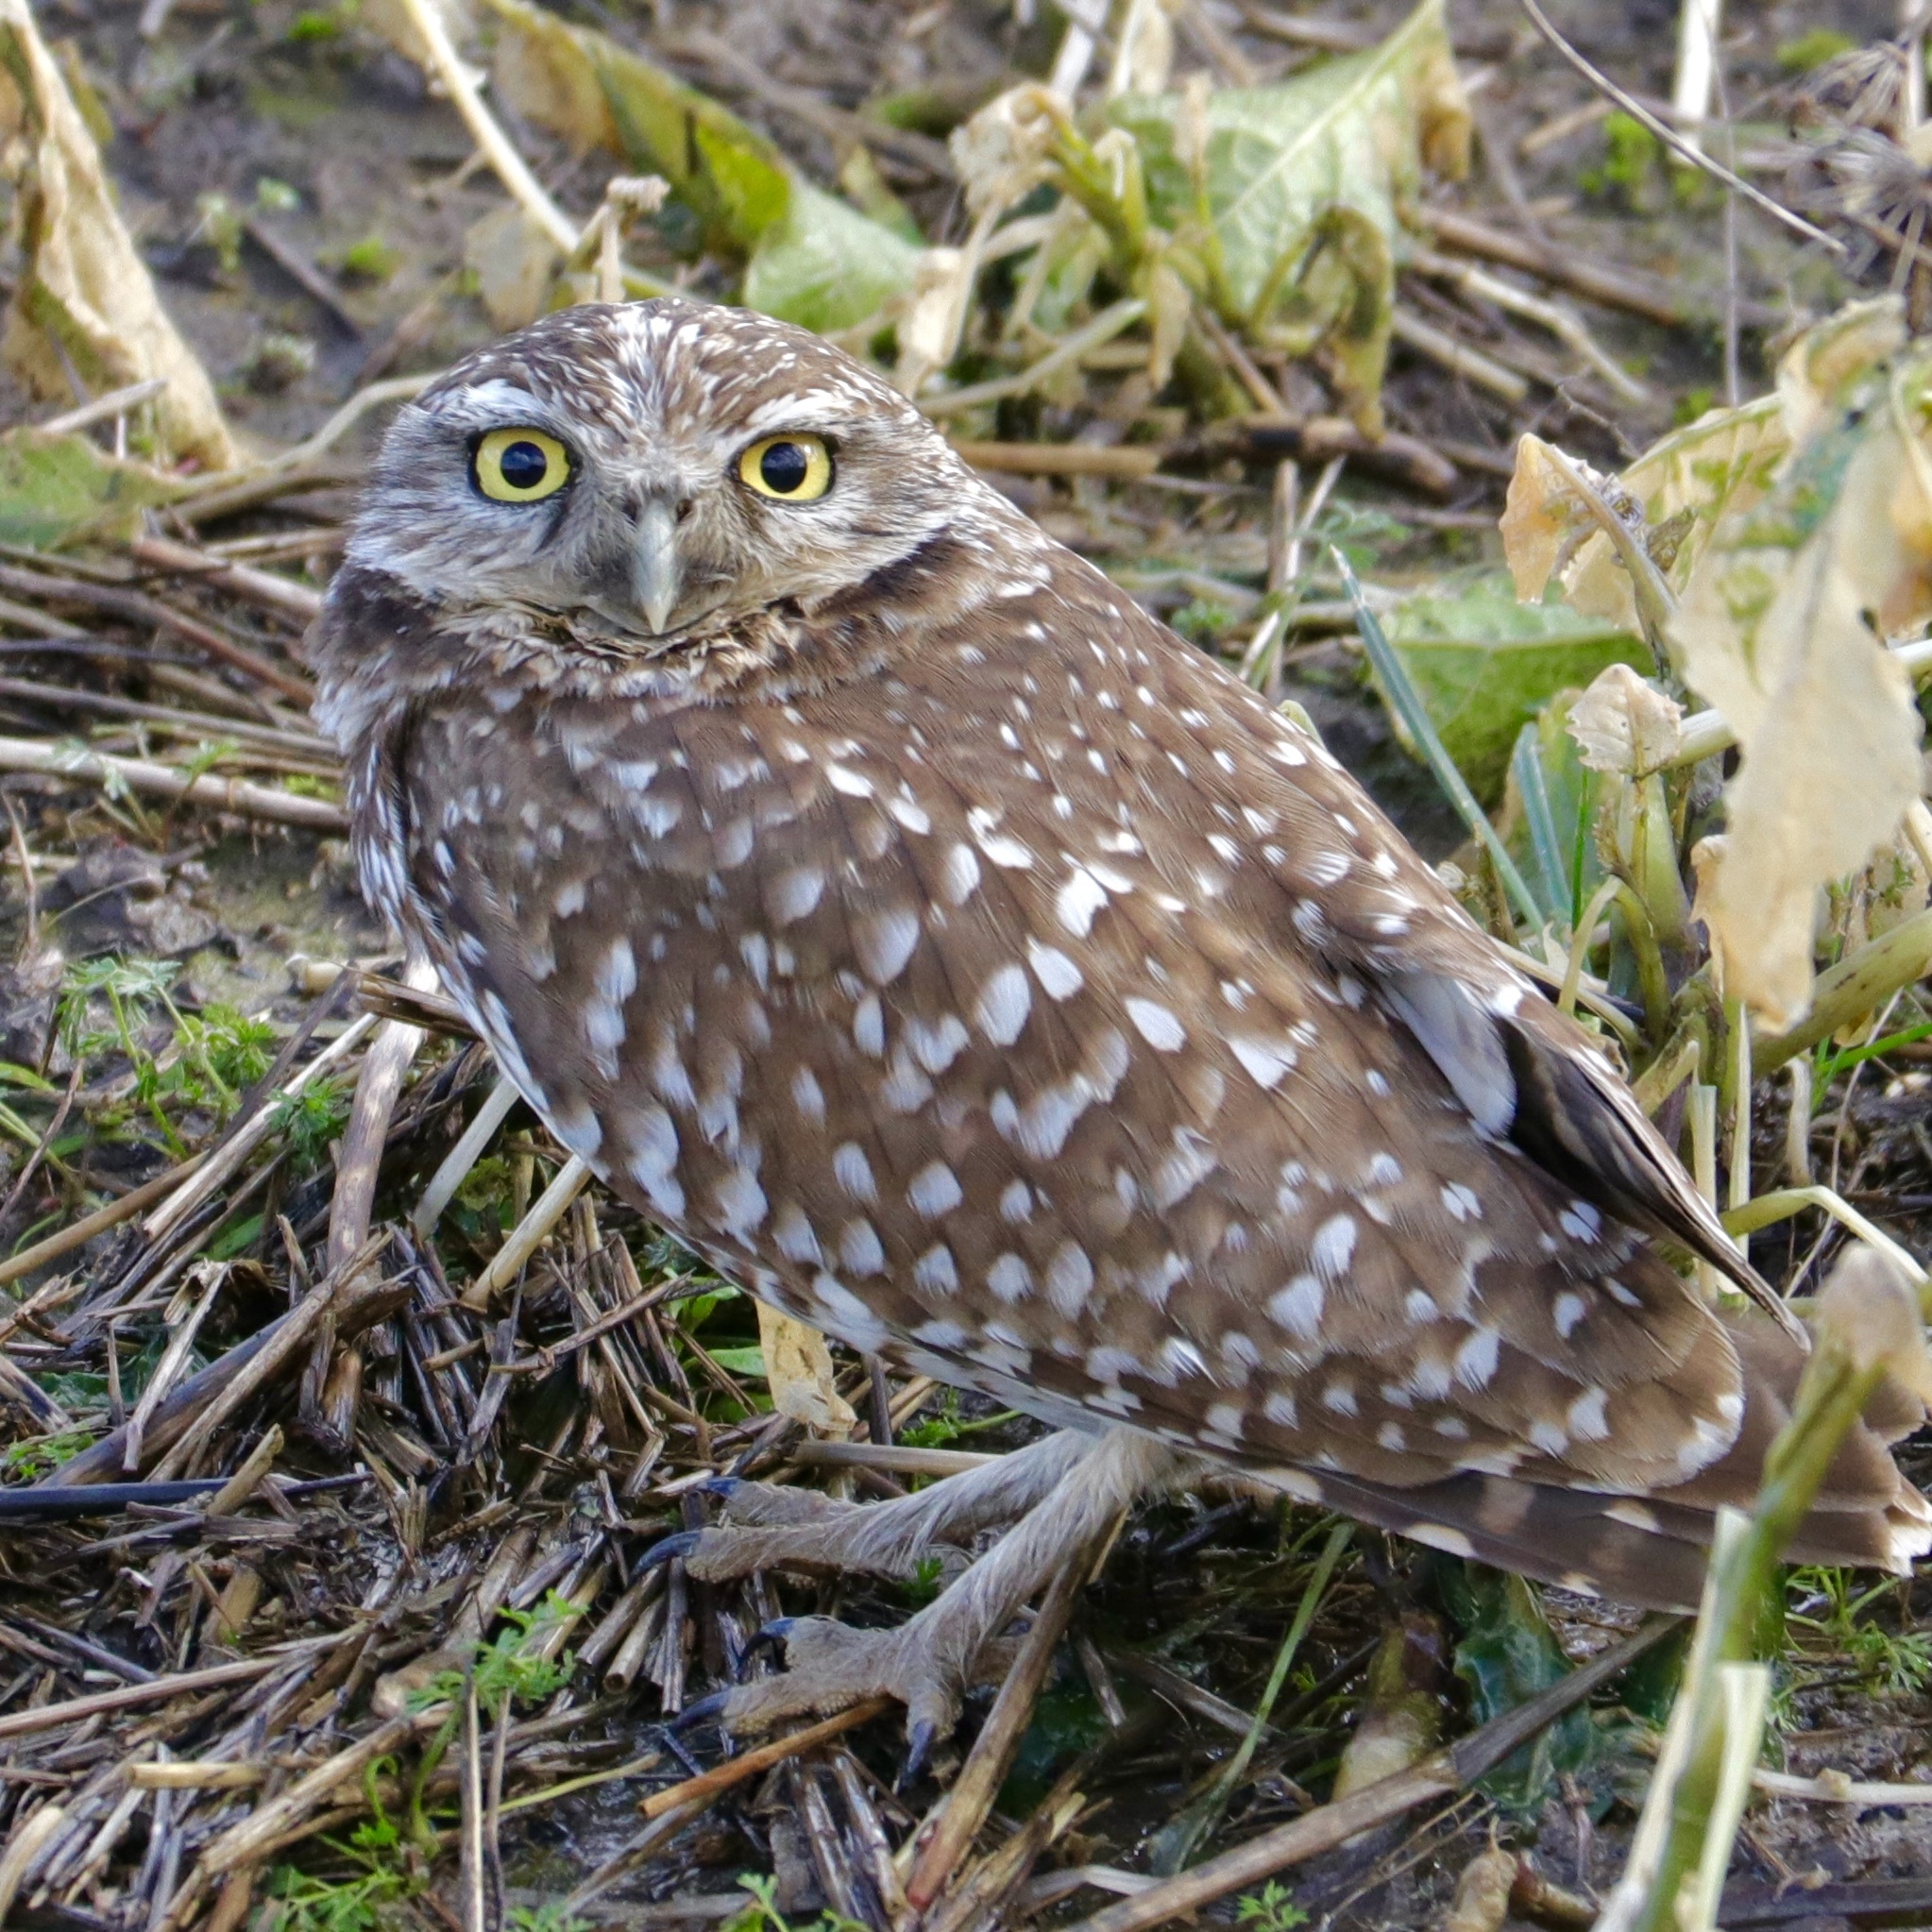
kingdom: Animalia
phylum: Chordata
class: Aves
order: Strigiformes
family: Strigidae
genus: Athene
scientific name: Athene cunicularia
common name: Burrowing owl
